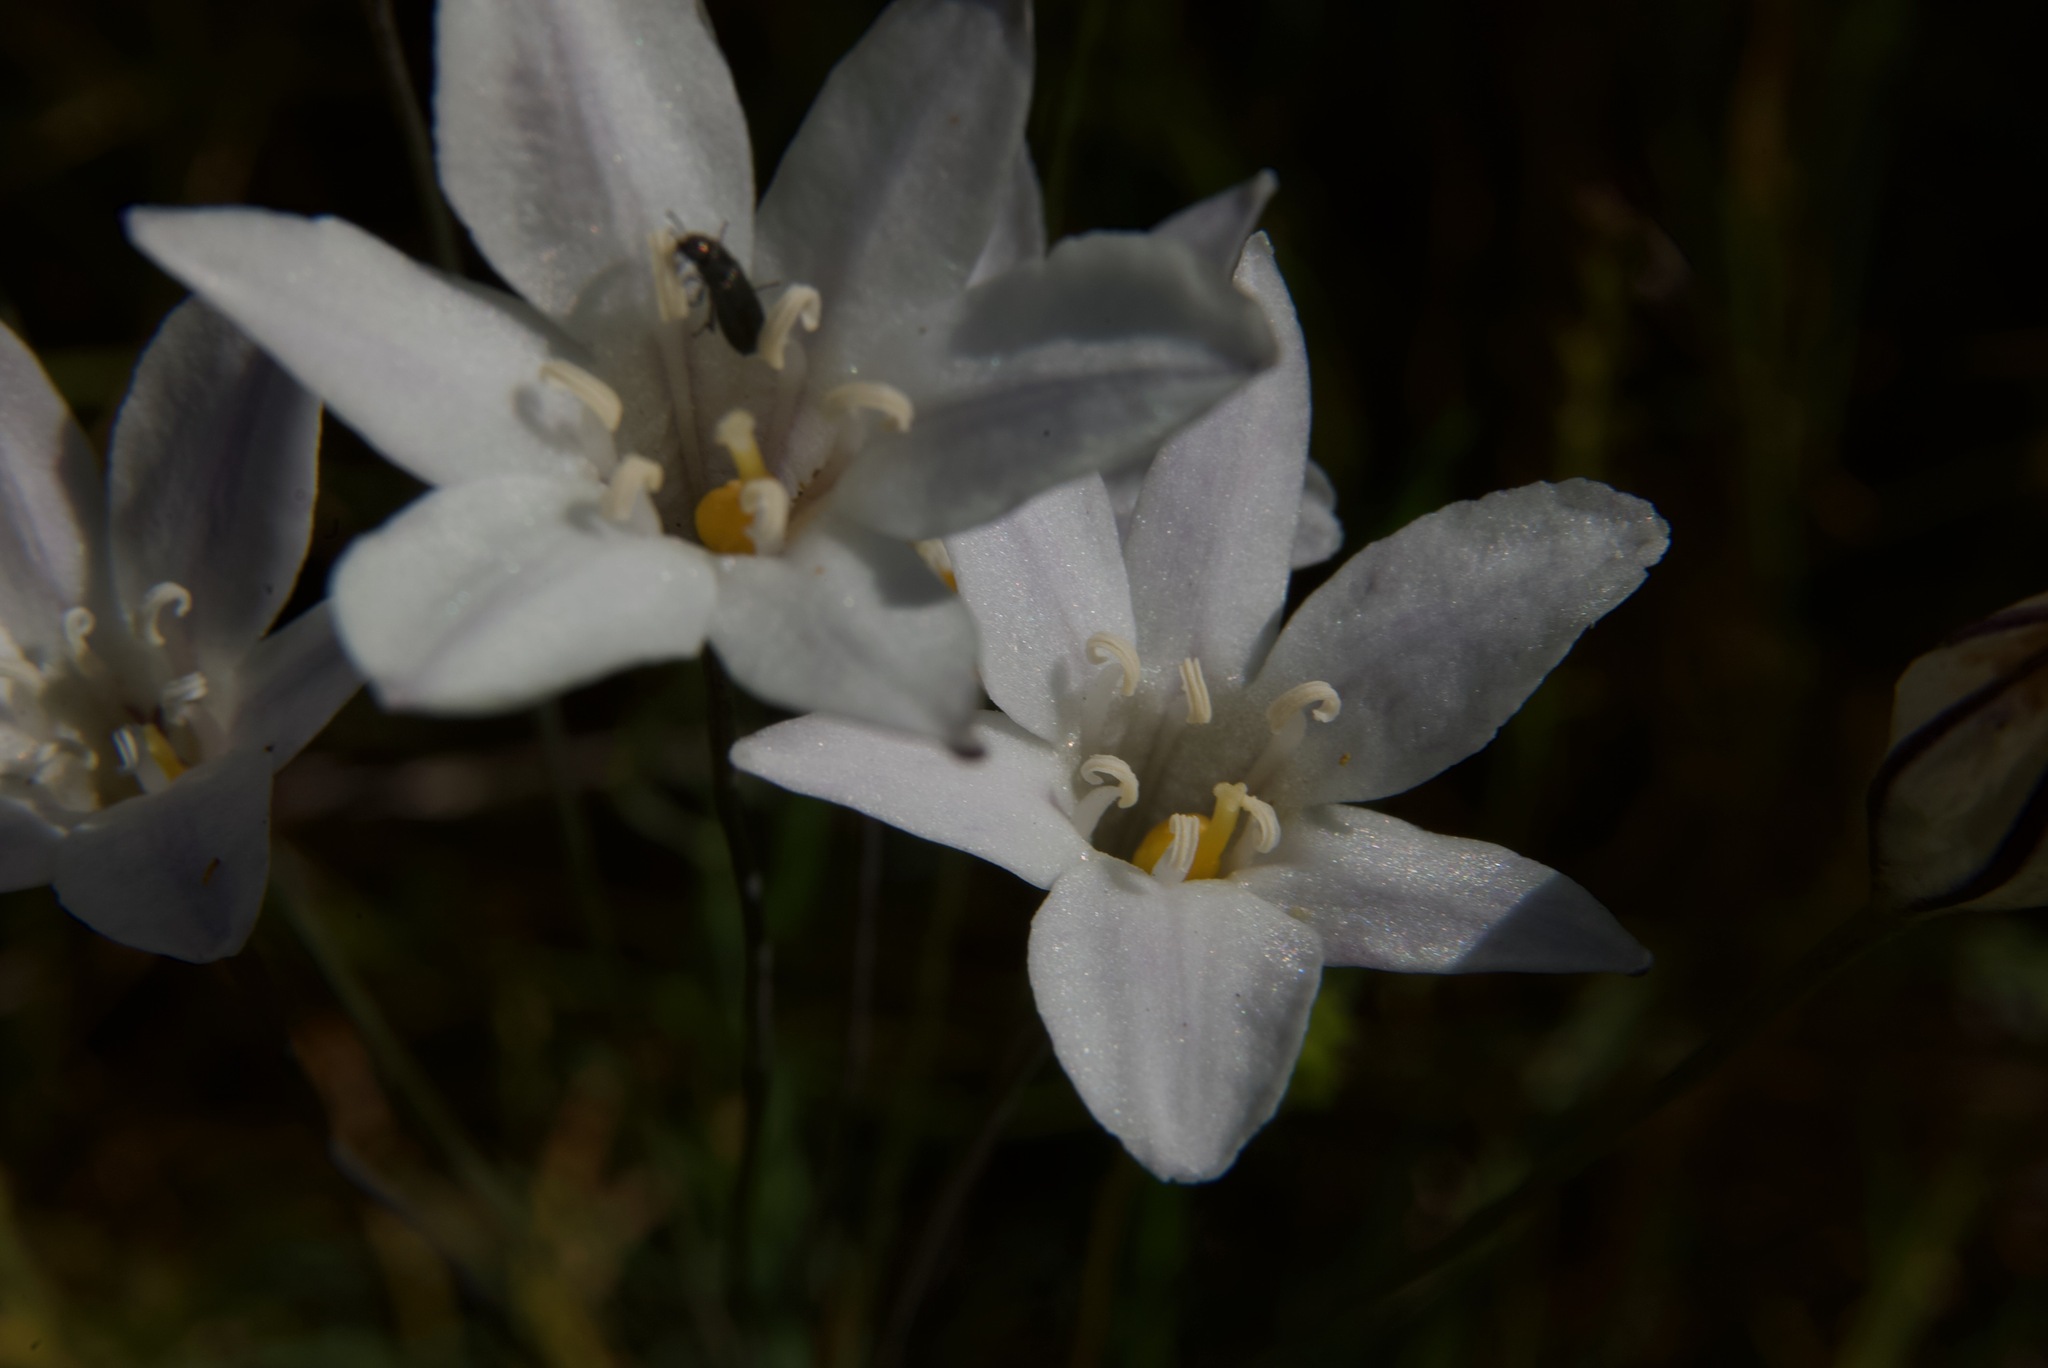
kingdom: Plantae
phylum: Tracheophyta
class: Liliopsida
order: Asparagales
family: Asparagaceae
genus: Triteleia
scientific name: Triteleia peduncularis
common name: Long-ray brodiaea
